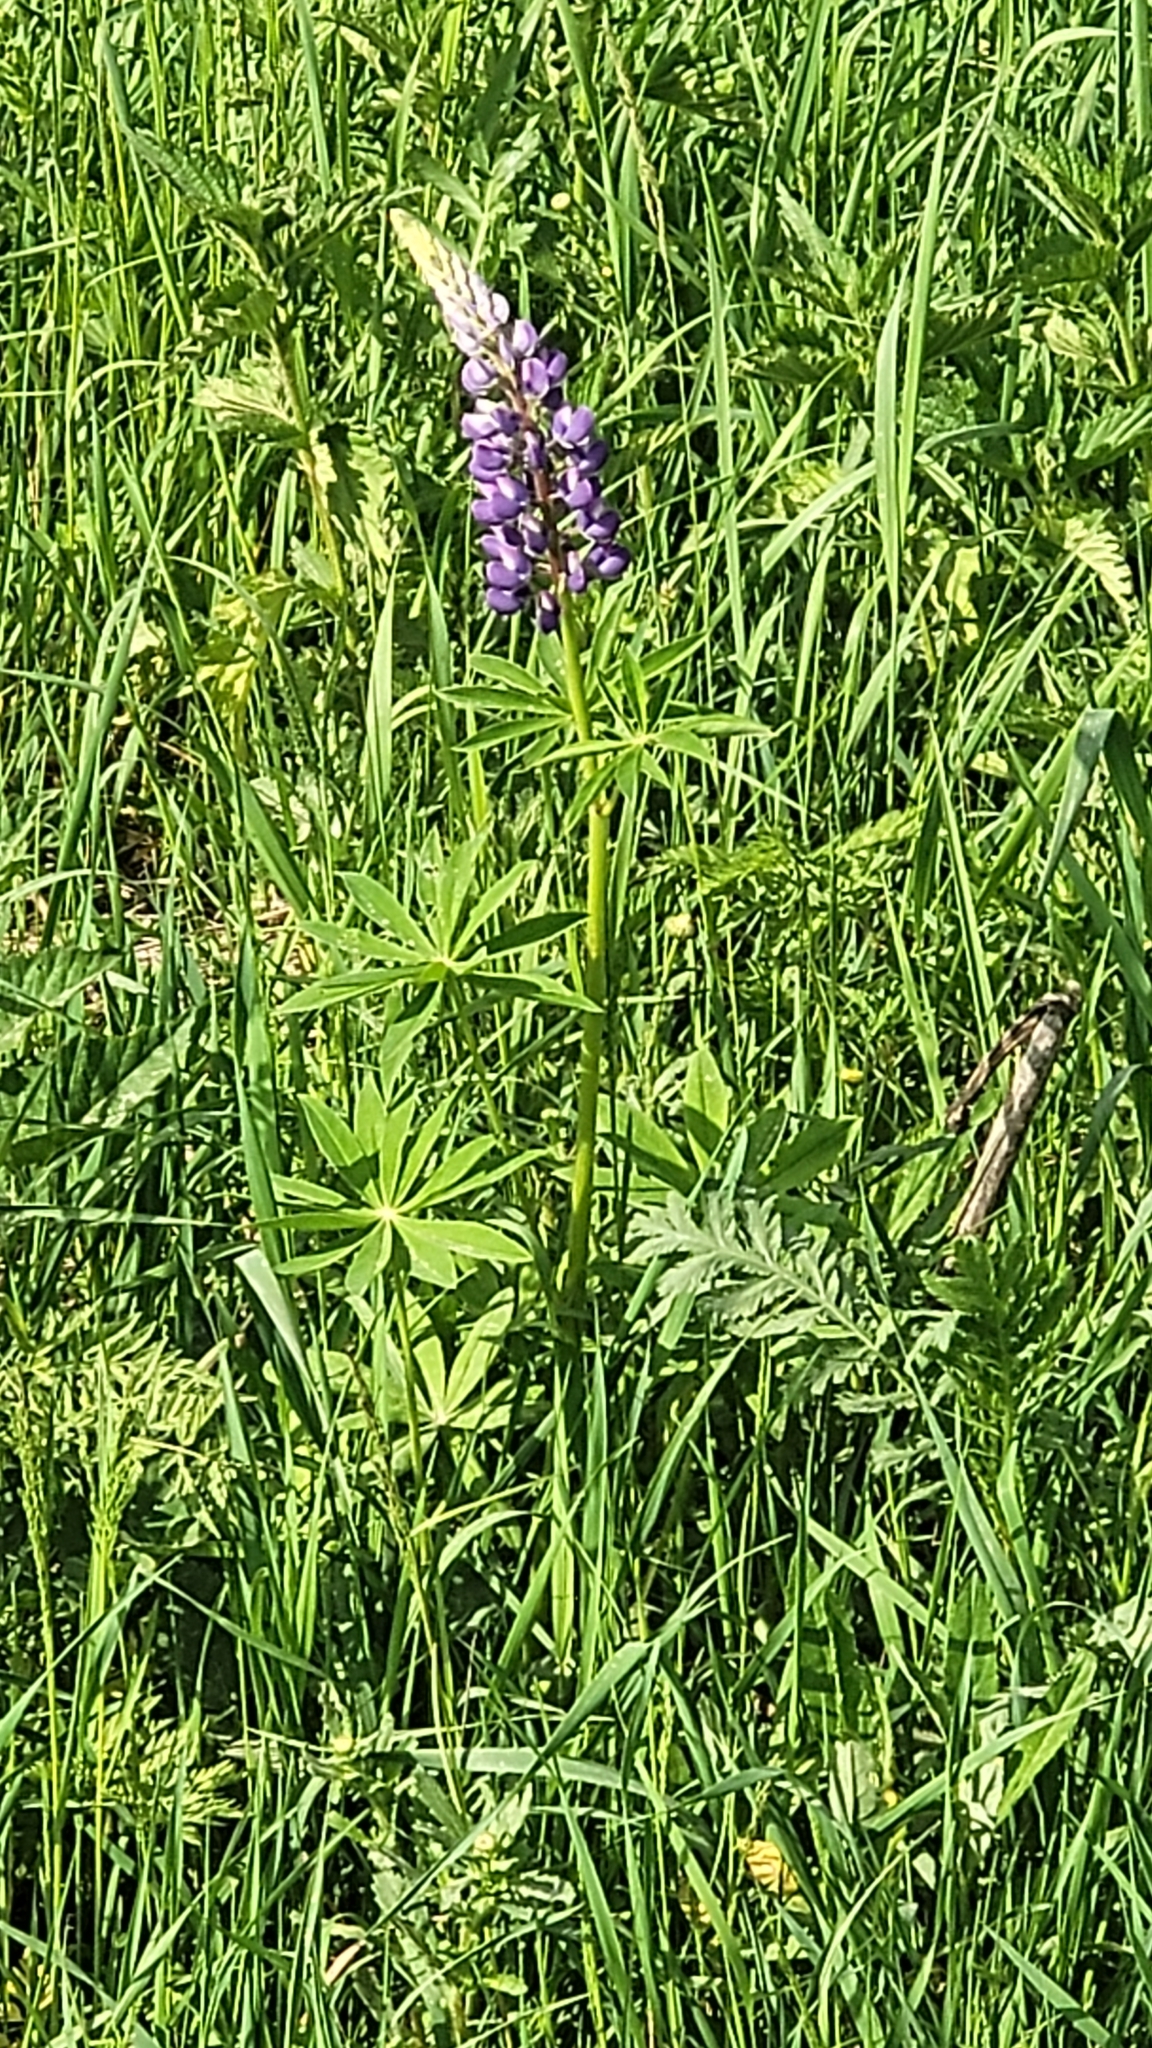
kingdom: Plantae
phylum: Tracheophyta
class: Magnoliopsida
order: Fabales
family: Fabaceae
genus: Lupinus
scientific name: Lupinus polyphyllus
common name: Garden lupin
